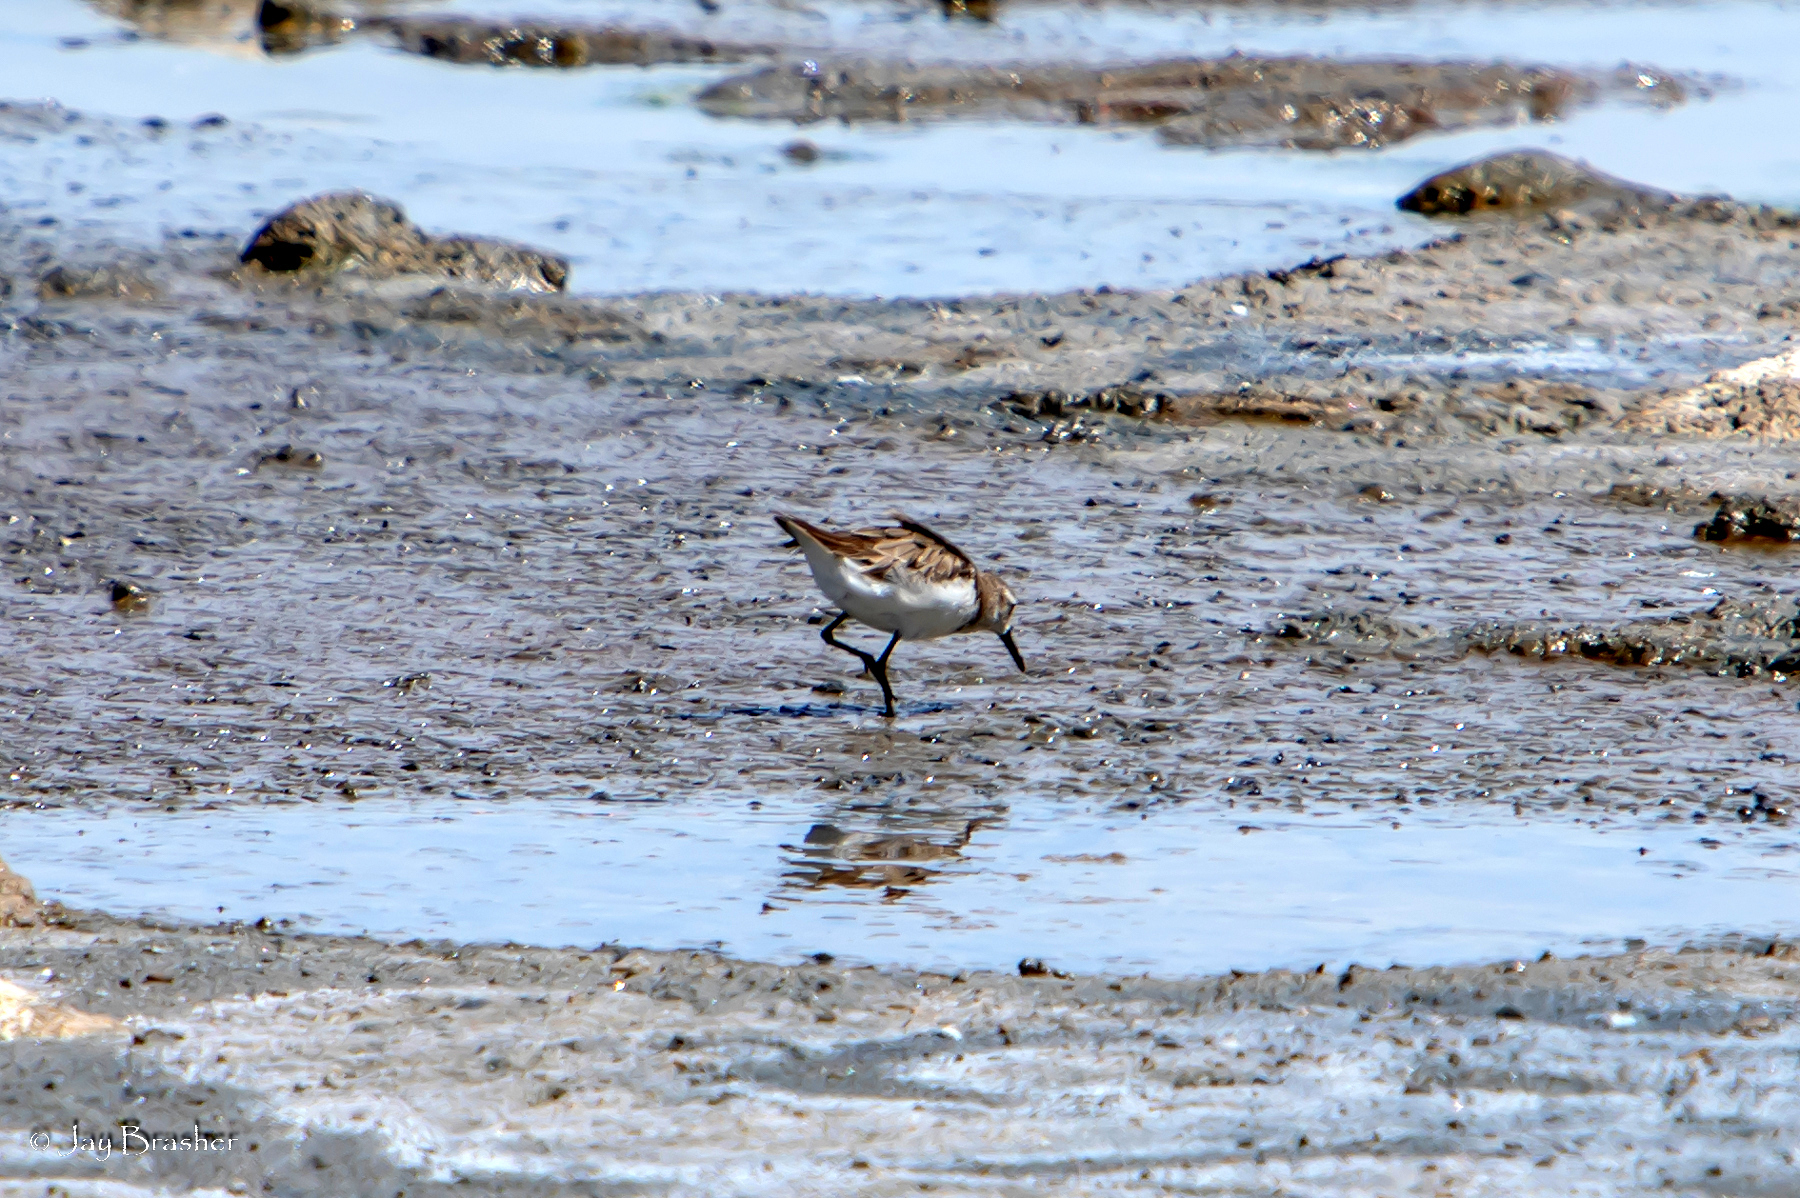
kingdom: Animalia
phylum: Chordata
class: Aves
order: Charadriiformes
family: Scolopacidae
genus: Calidris
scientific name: Calidris pusilla
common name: Semipalmated sandpiper
